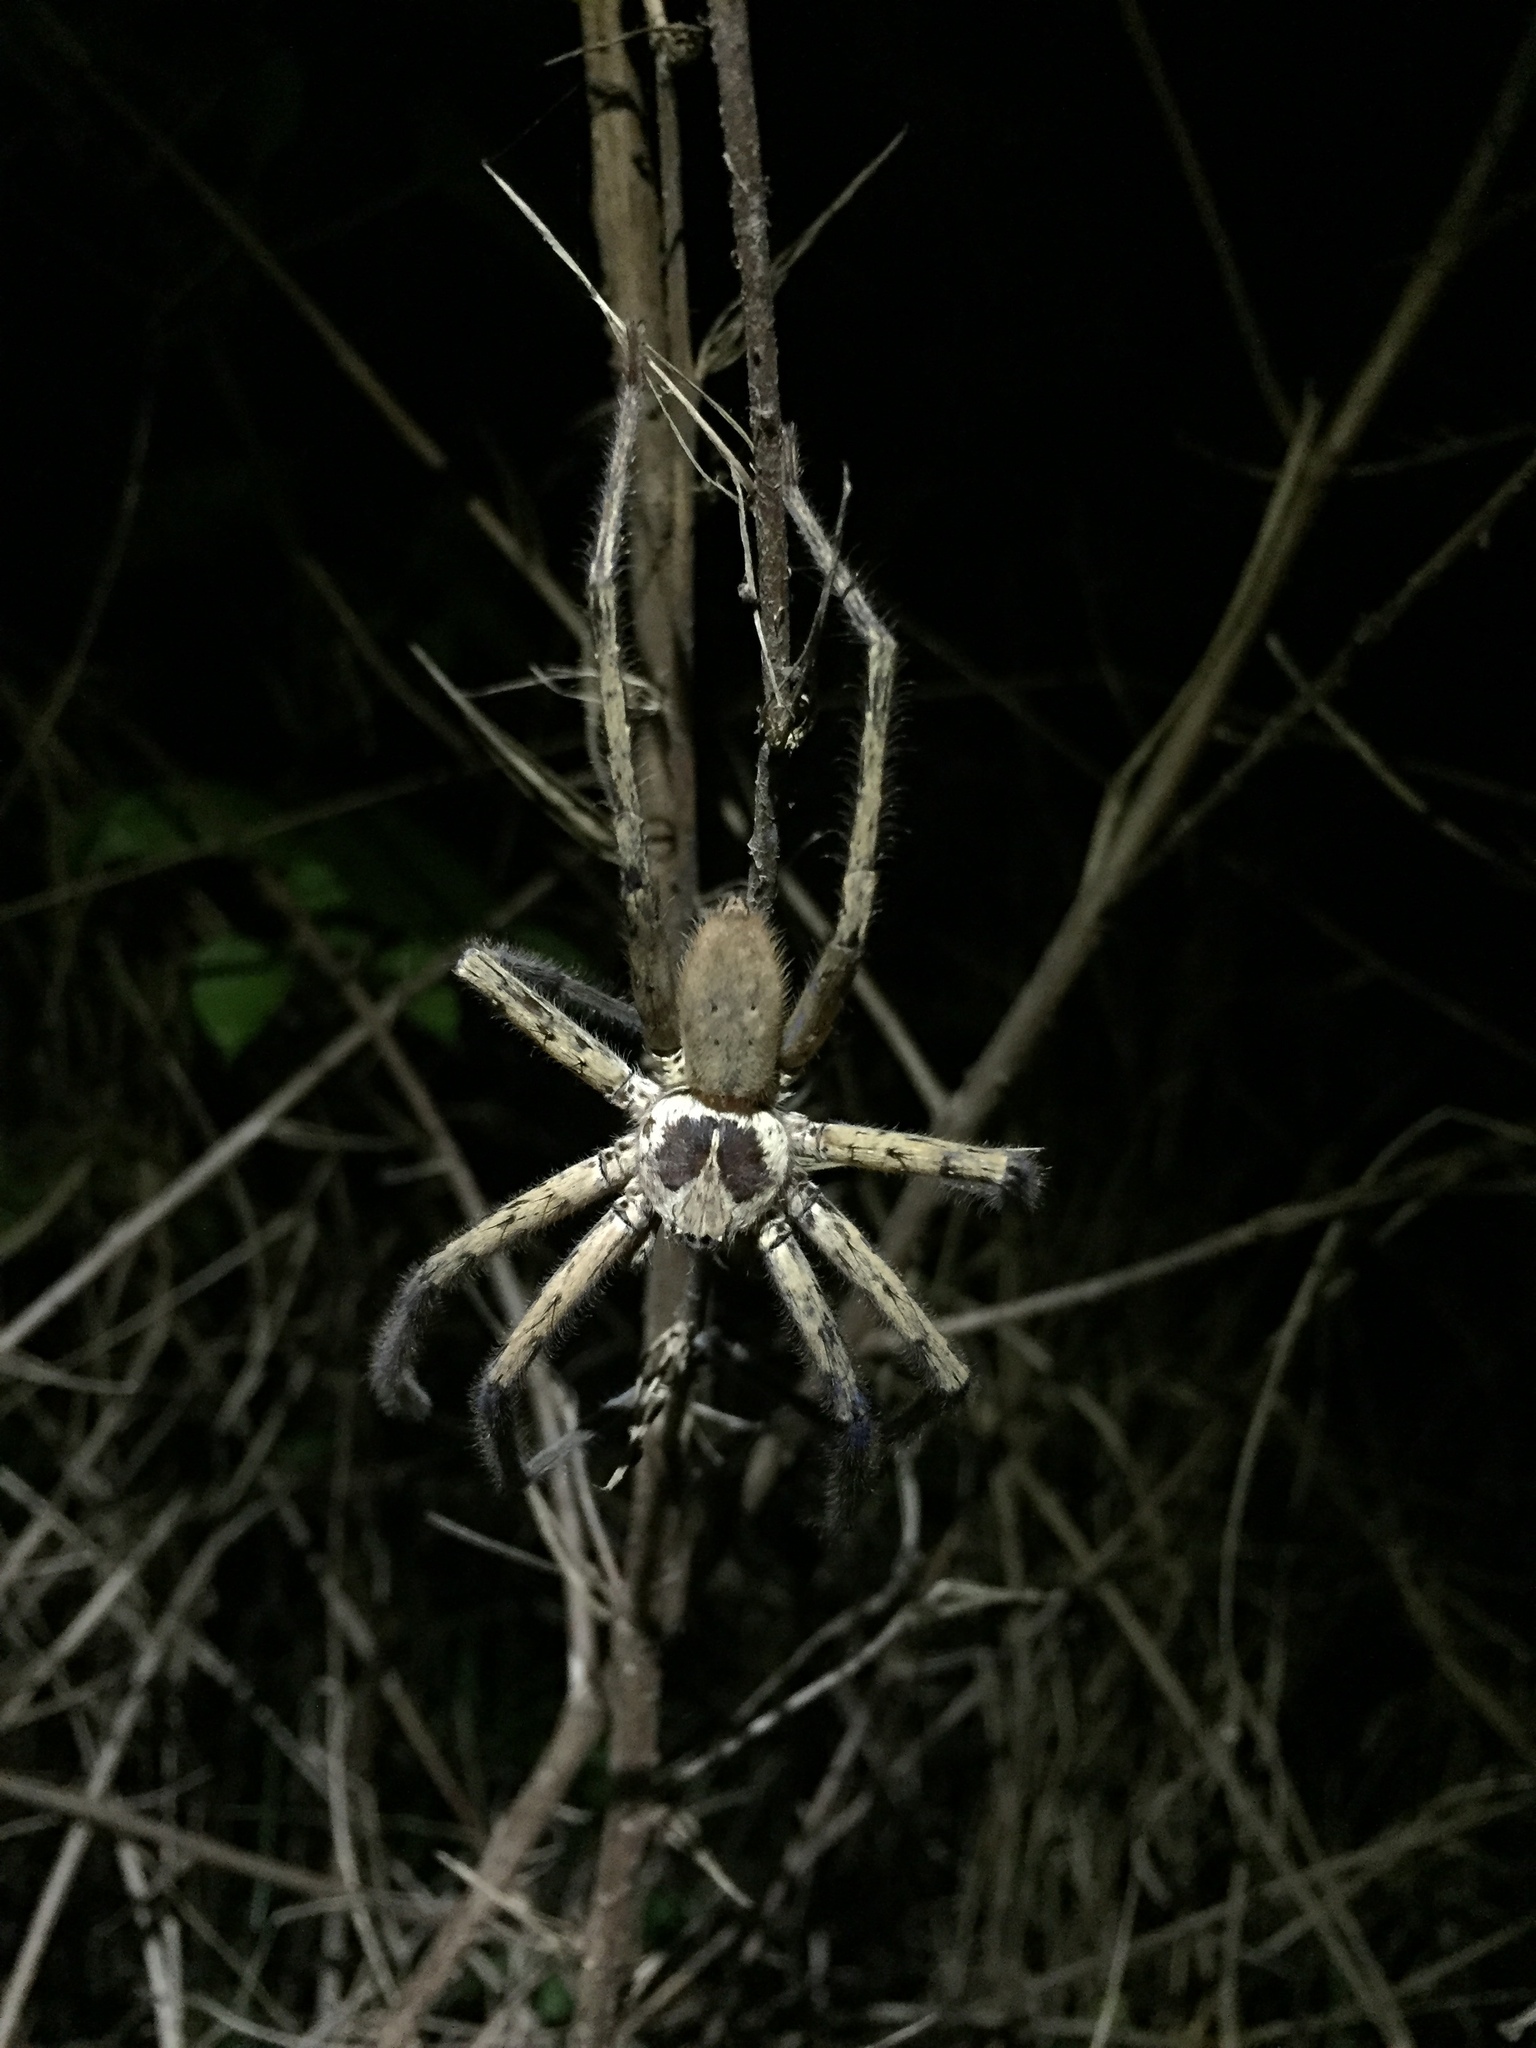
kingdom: Animalia
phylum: Arthropoda
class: Arachnida
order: Araneae
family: Sparassidae
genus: Heteropoda
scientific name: Heteropoda venatoria
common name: Huntsman spider
